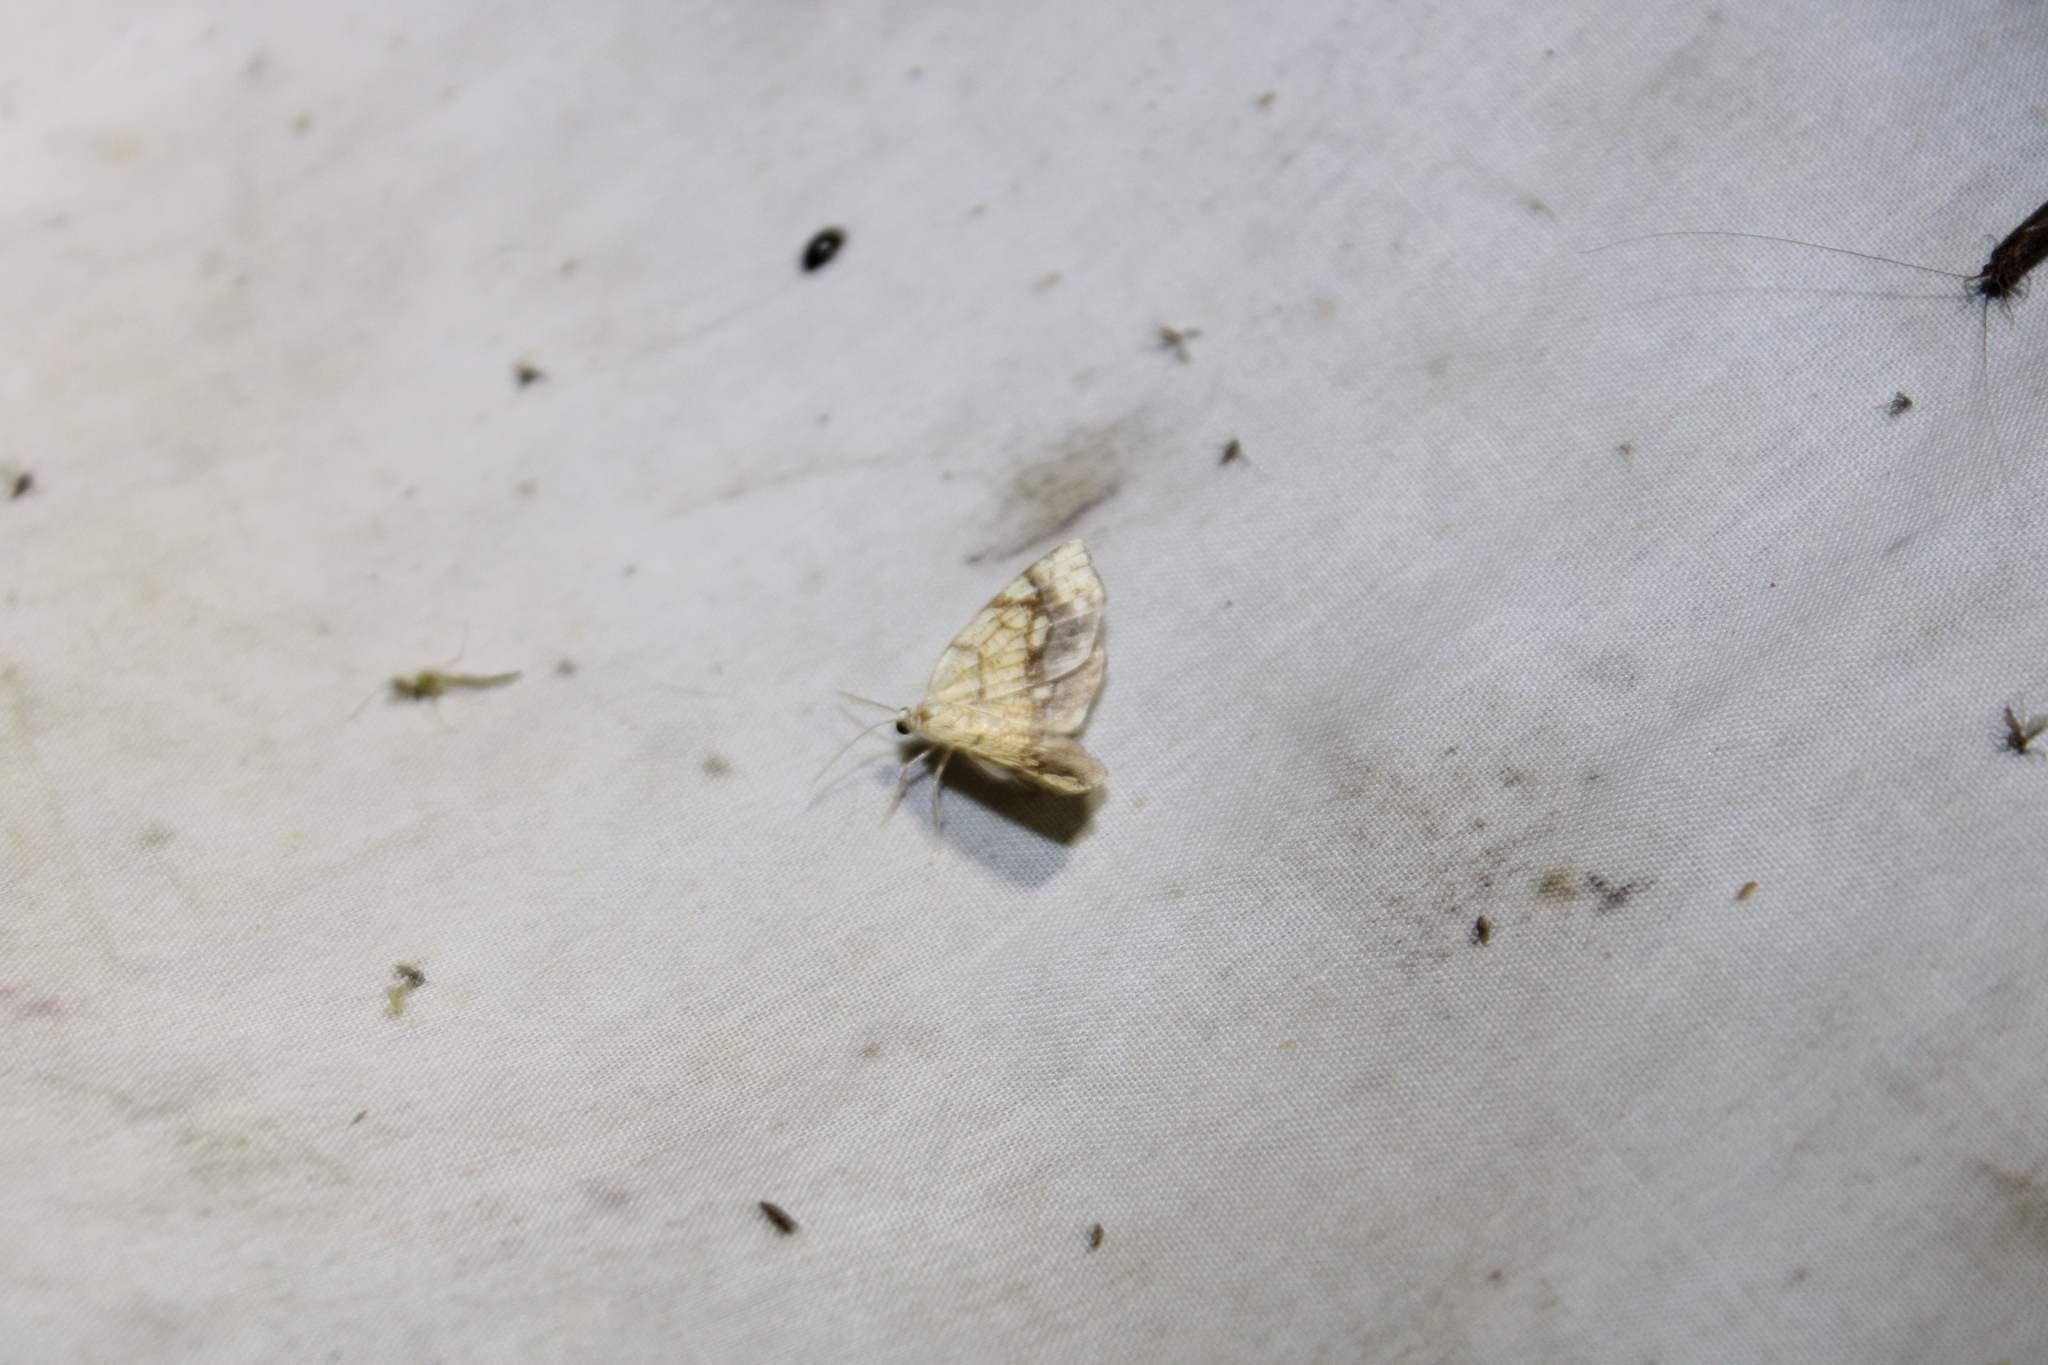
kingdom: Animalia
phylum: Arthropoda
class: Insecta
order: Lepidoptera
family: Geometridae
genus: Nematocampa
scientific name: Nematocampa resistaria
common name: Horned spanworm moth
